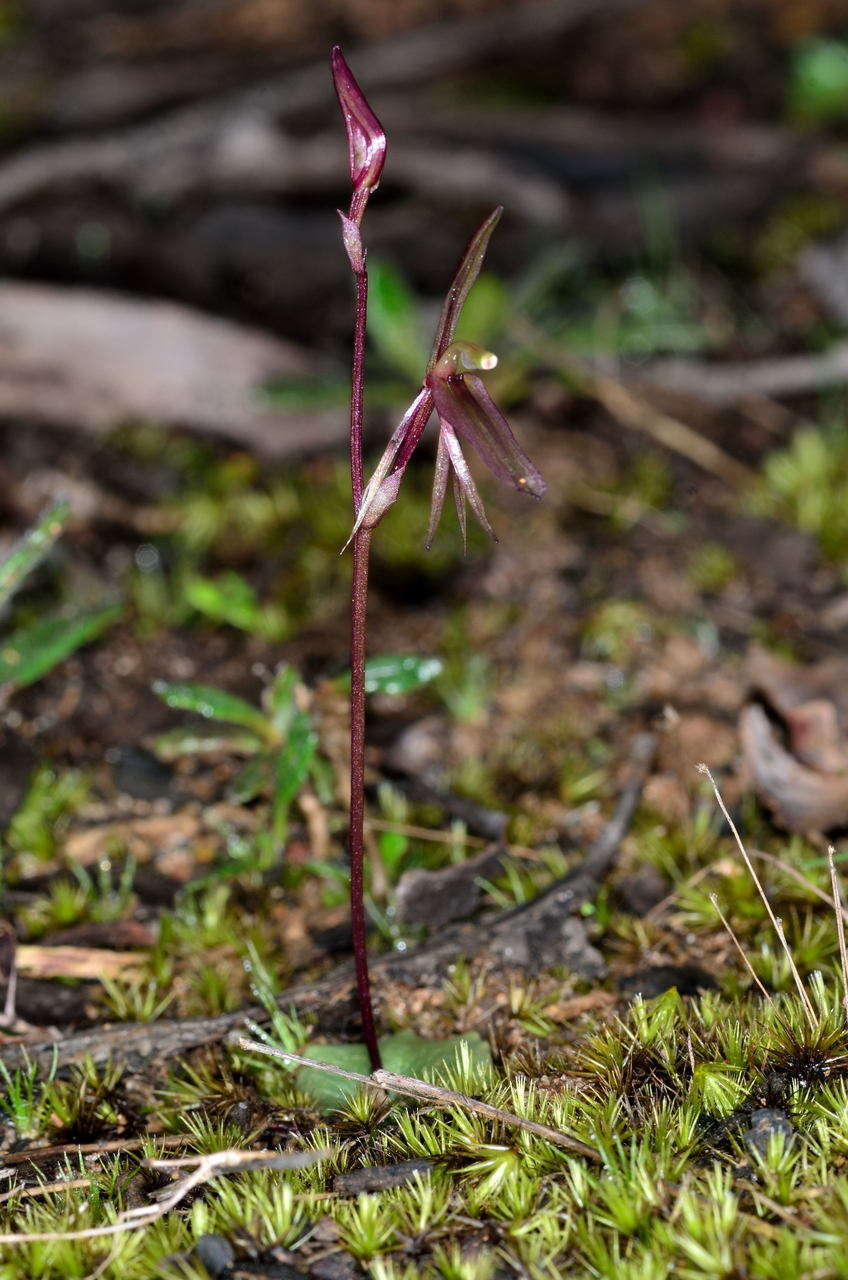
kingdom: Plantae
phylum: Tracheophyta
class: Liliopsida
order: Asparagales
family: Orchidaceae
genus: Cyrtostylis
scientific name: Cyrtostylis reniformis
